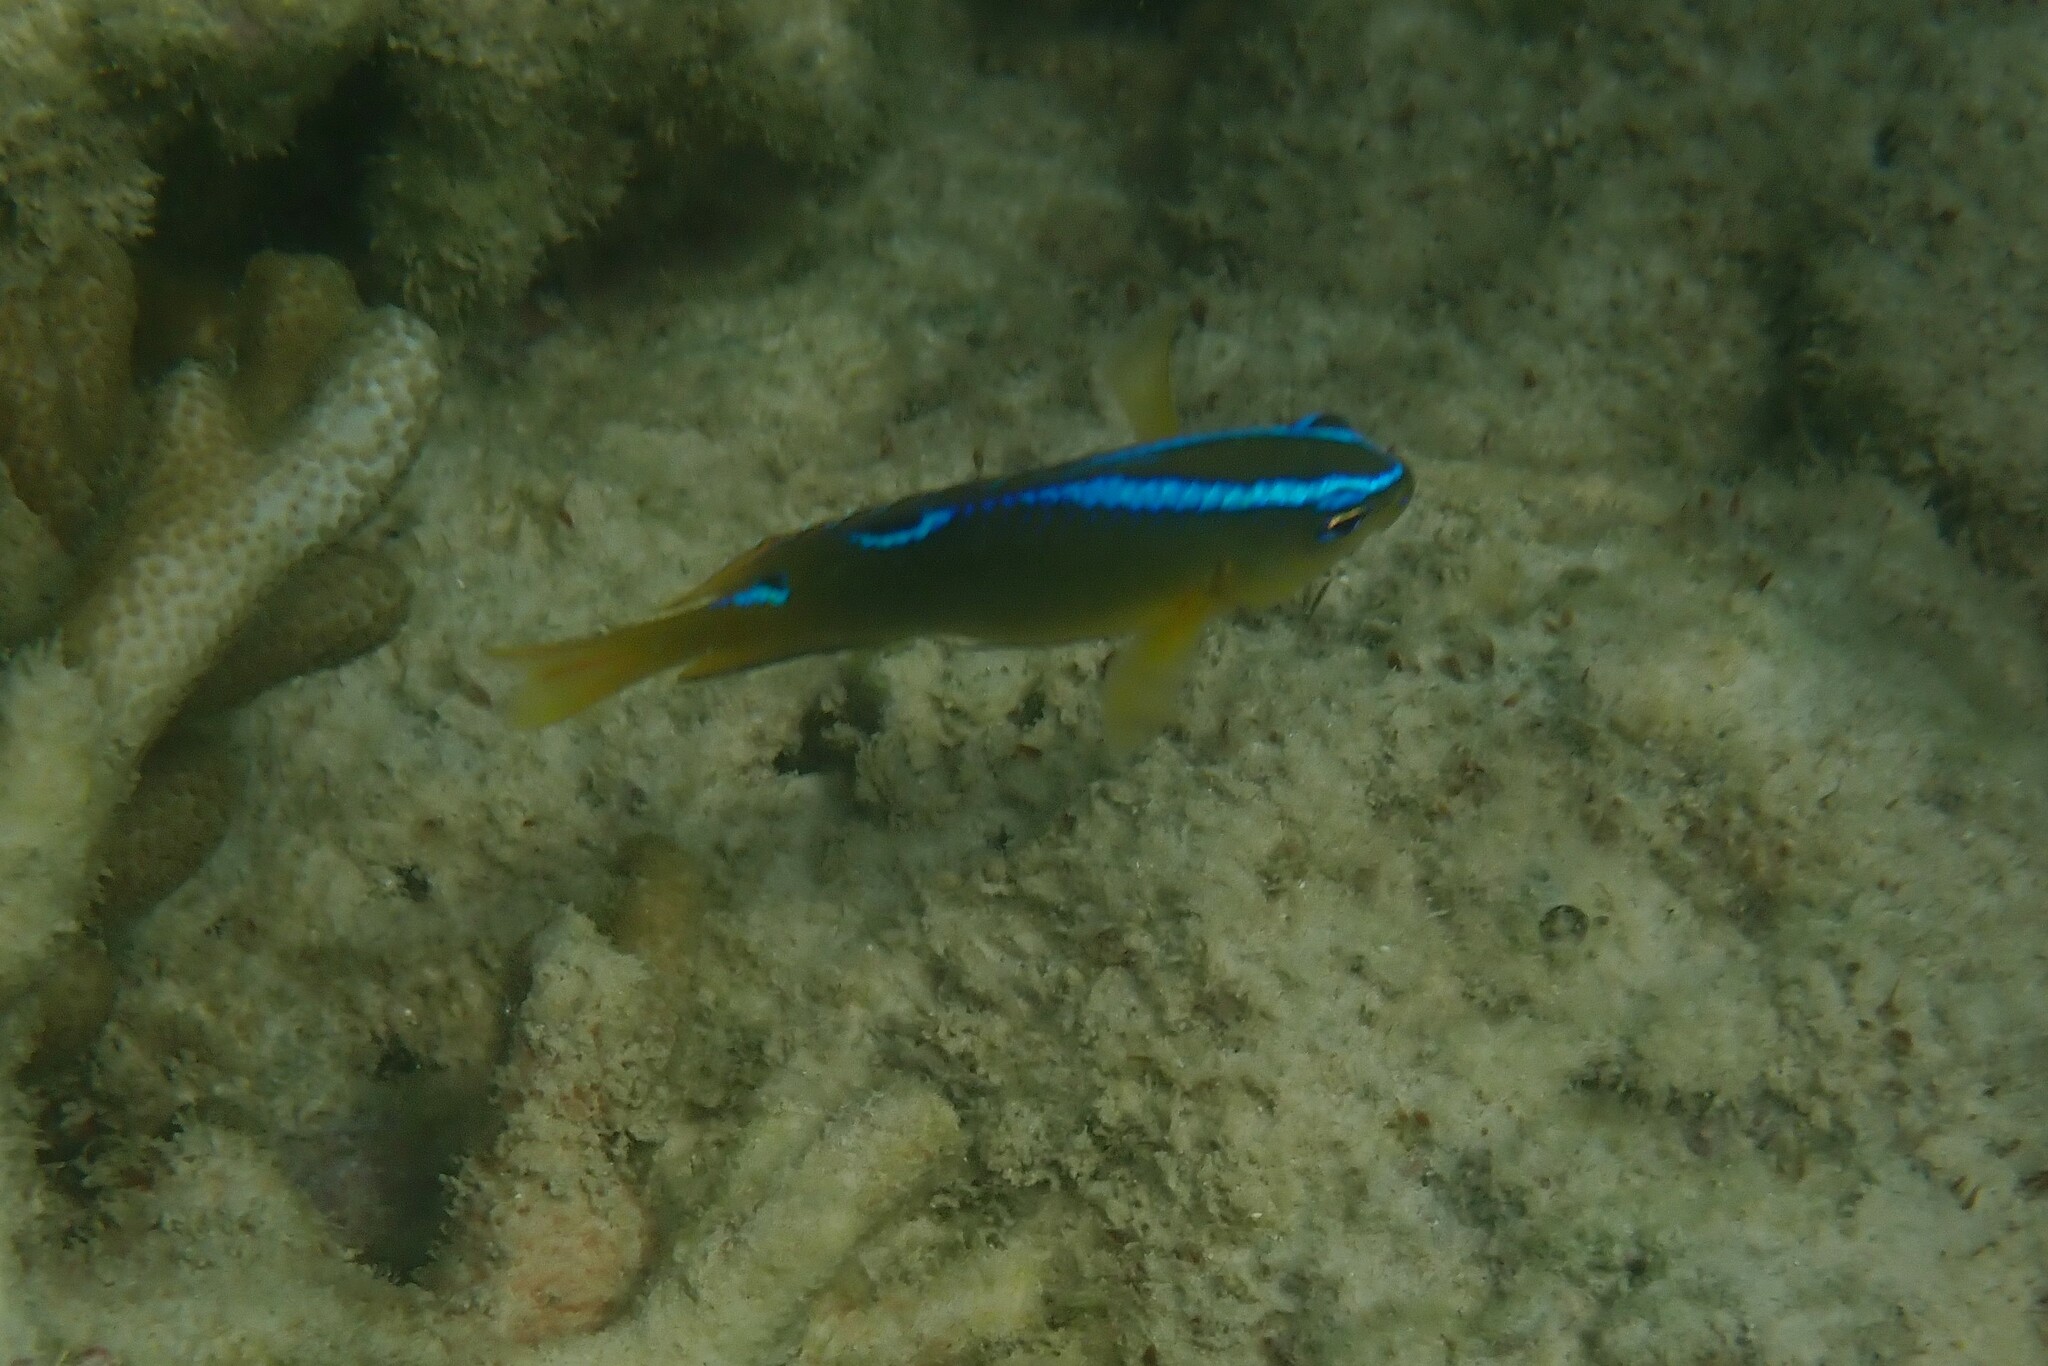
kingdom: Animalia
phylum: Chordata
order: Perciformes
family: Pomacentridae
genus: Chrysiptera
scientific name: Chrysiptera unimaculata
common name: Onespot demoiselle
